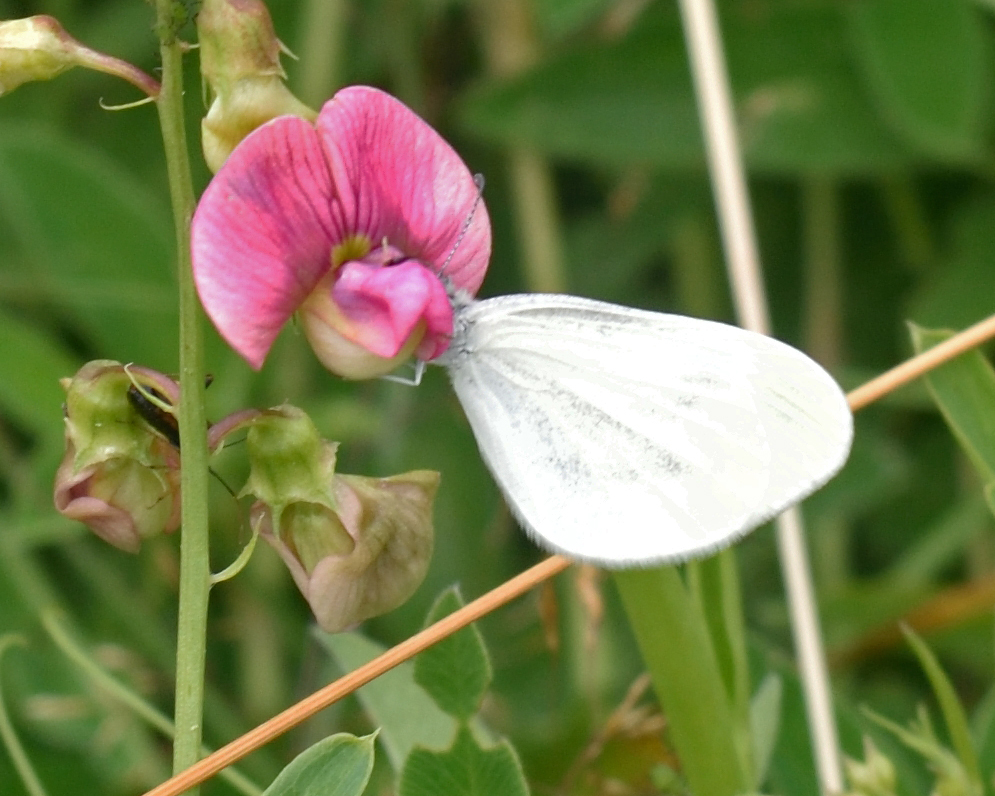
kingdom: Animalia
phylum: Arthropoda
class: Insecta
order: Lepidoptera
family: Pieridae
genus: Leptidea
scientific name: Leptidea
